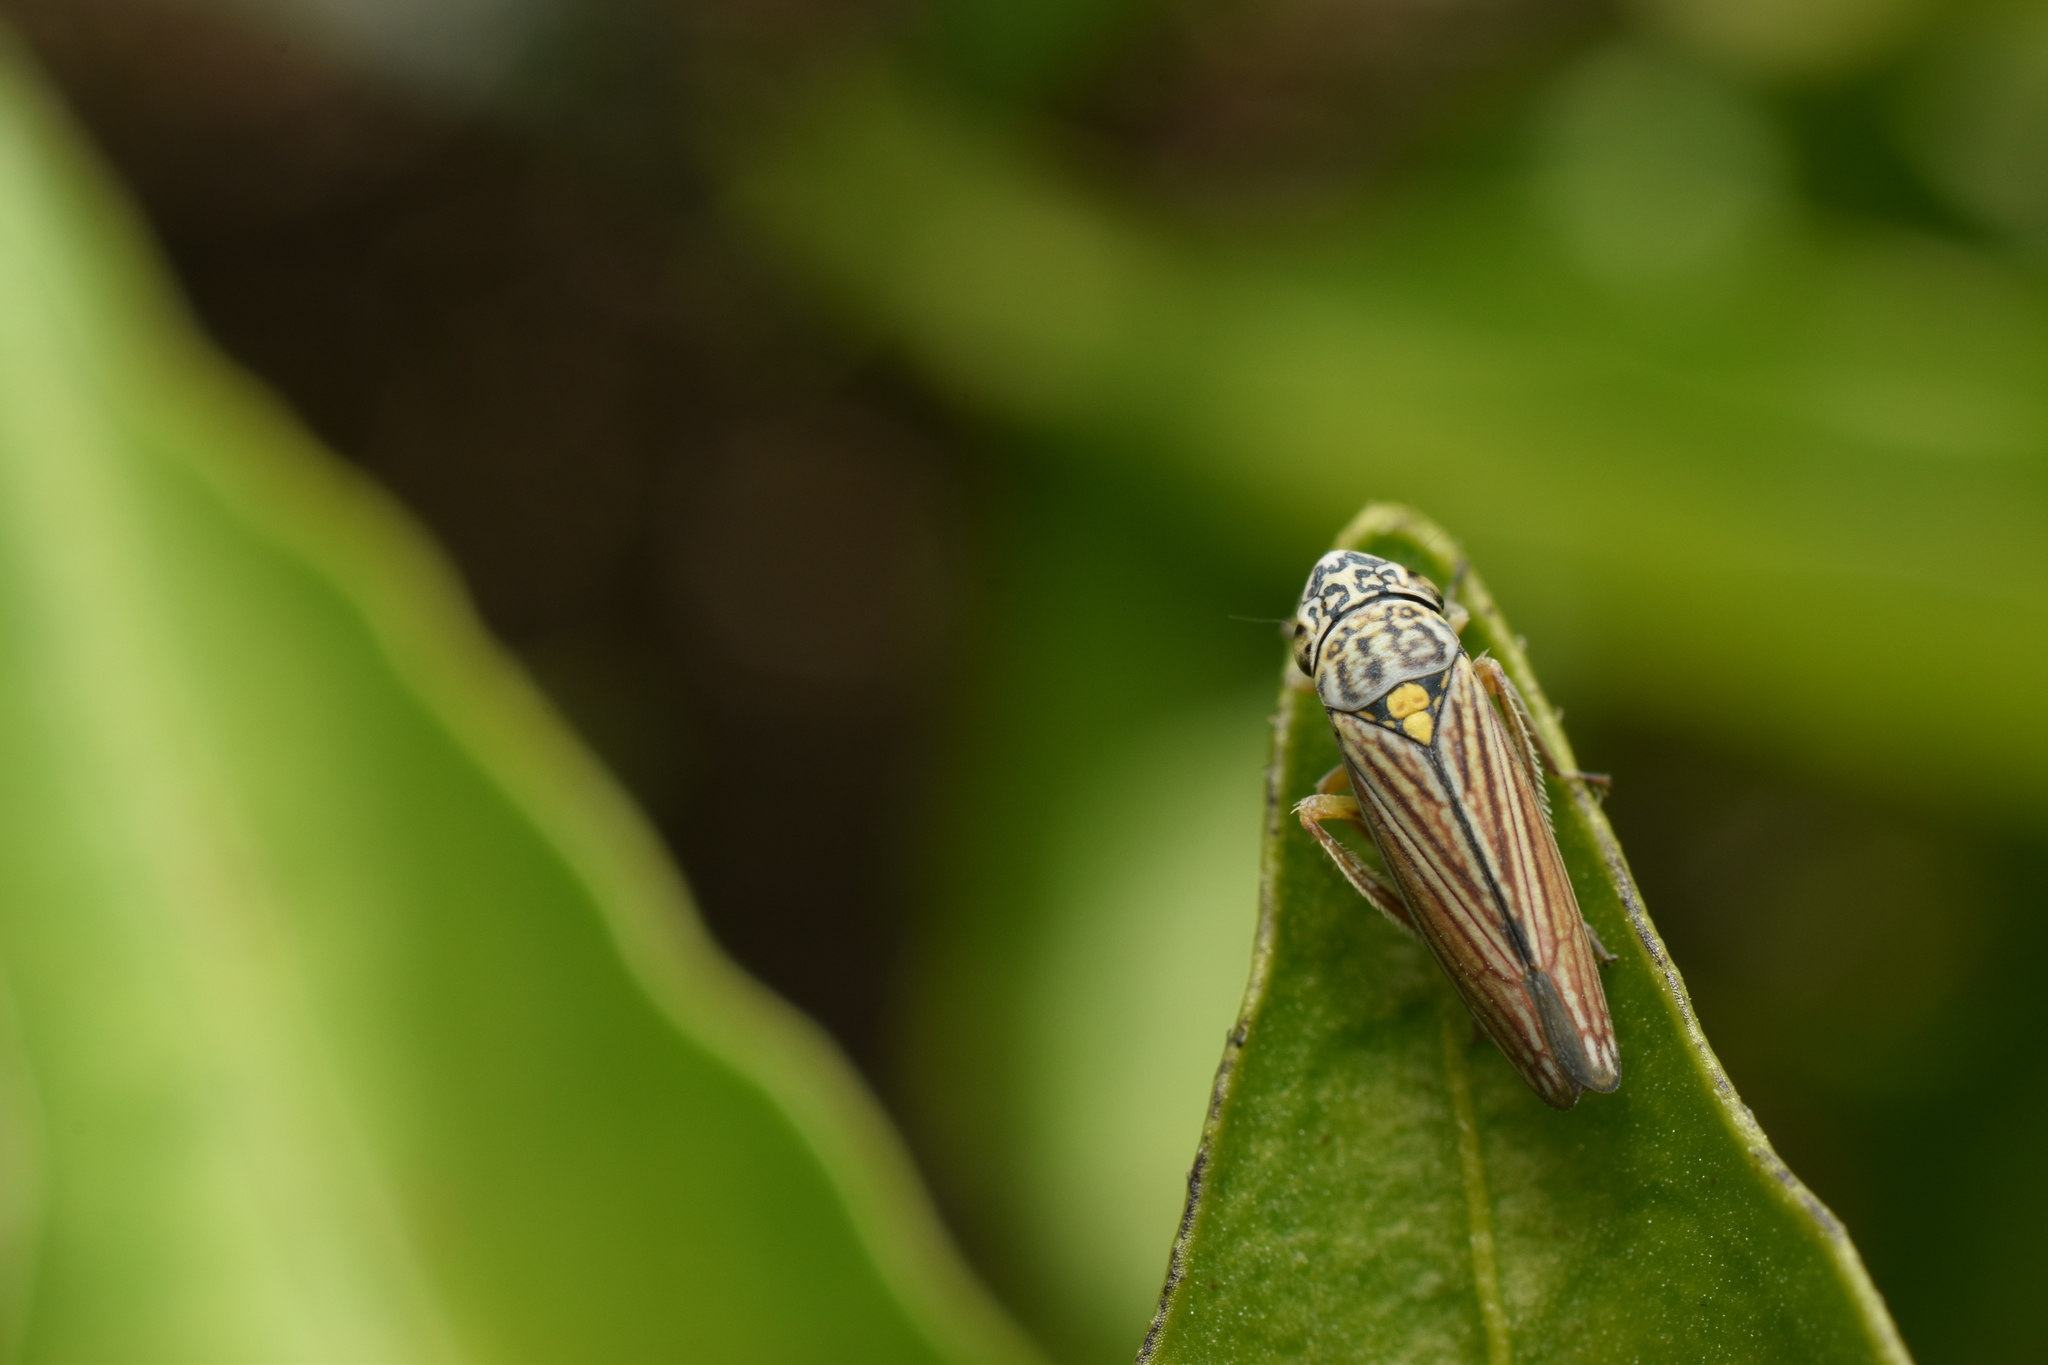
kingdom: Animalia
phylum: Arthropoda
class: Insecta
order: Hemiptera
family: Cicadellidae
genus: Neokolla
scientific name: Neokolla hieroglyphica
